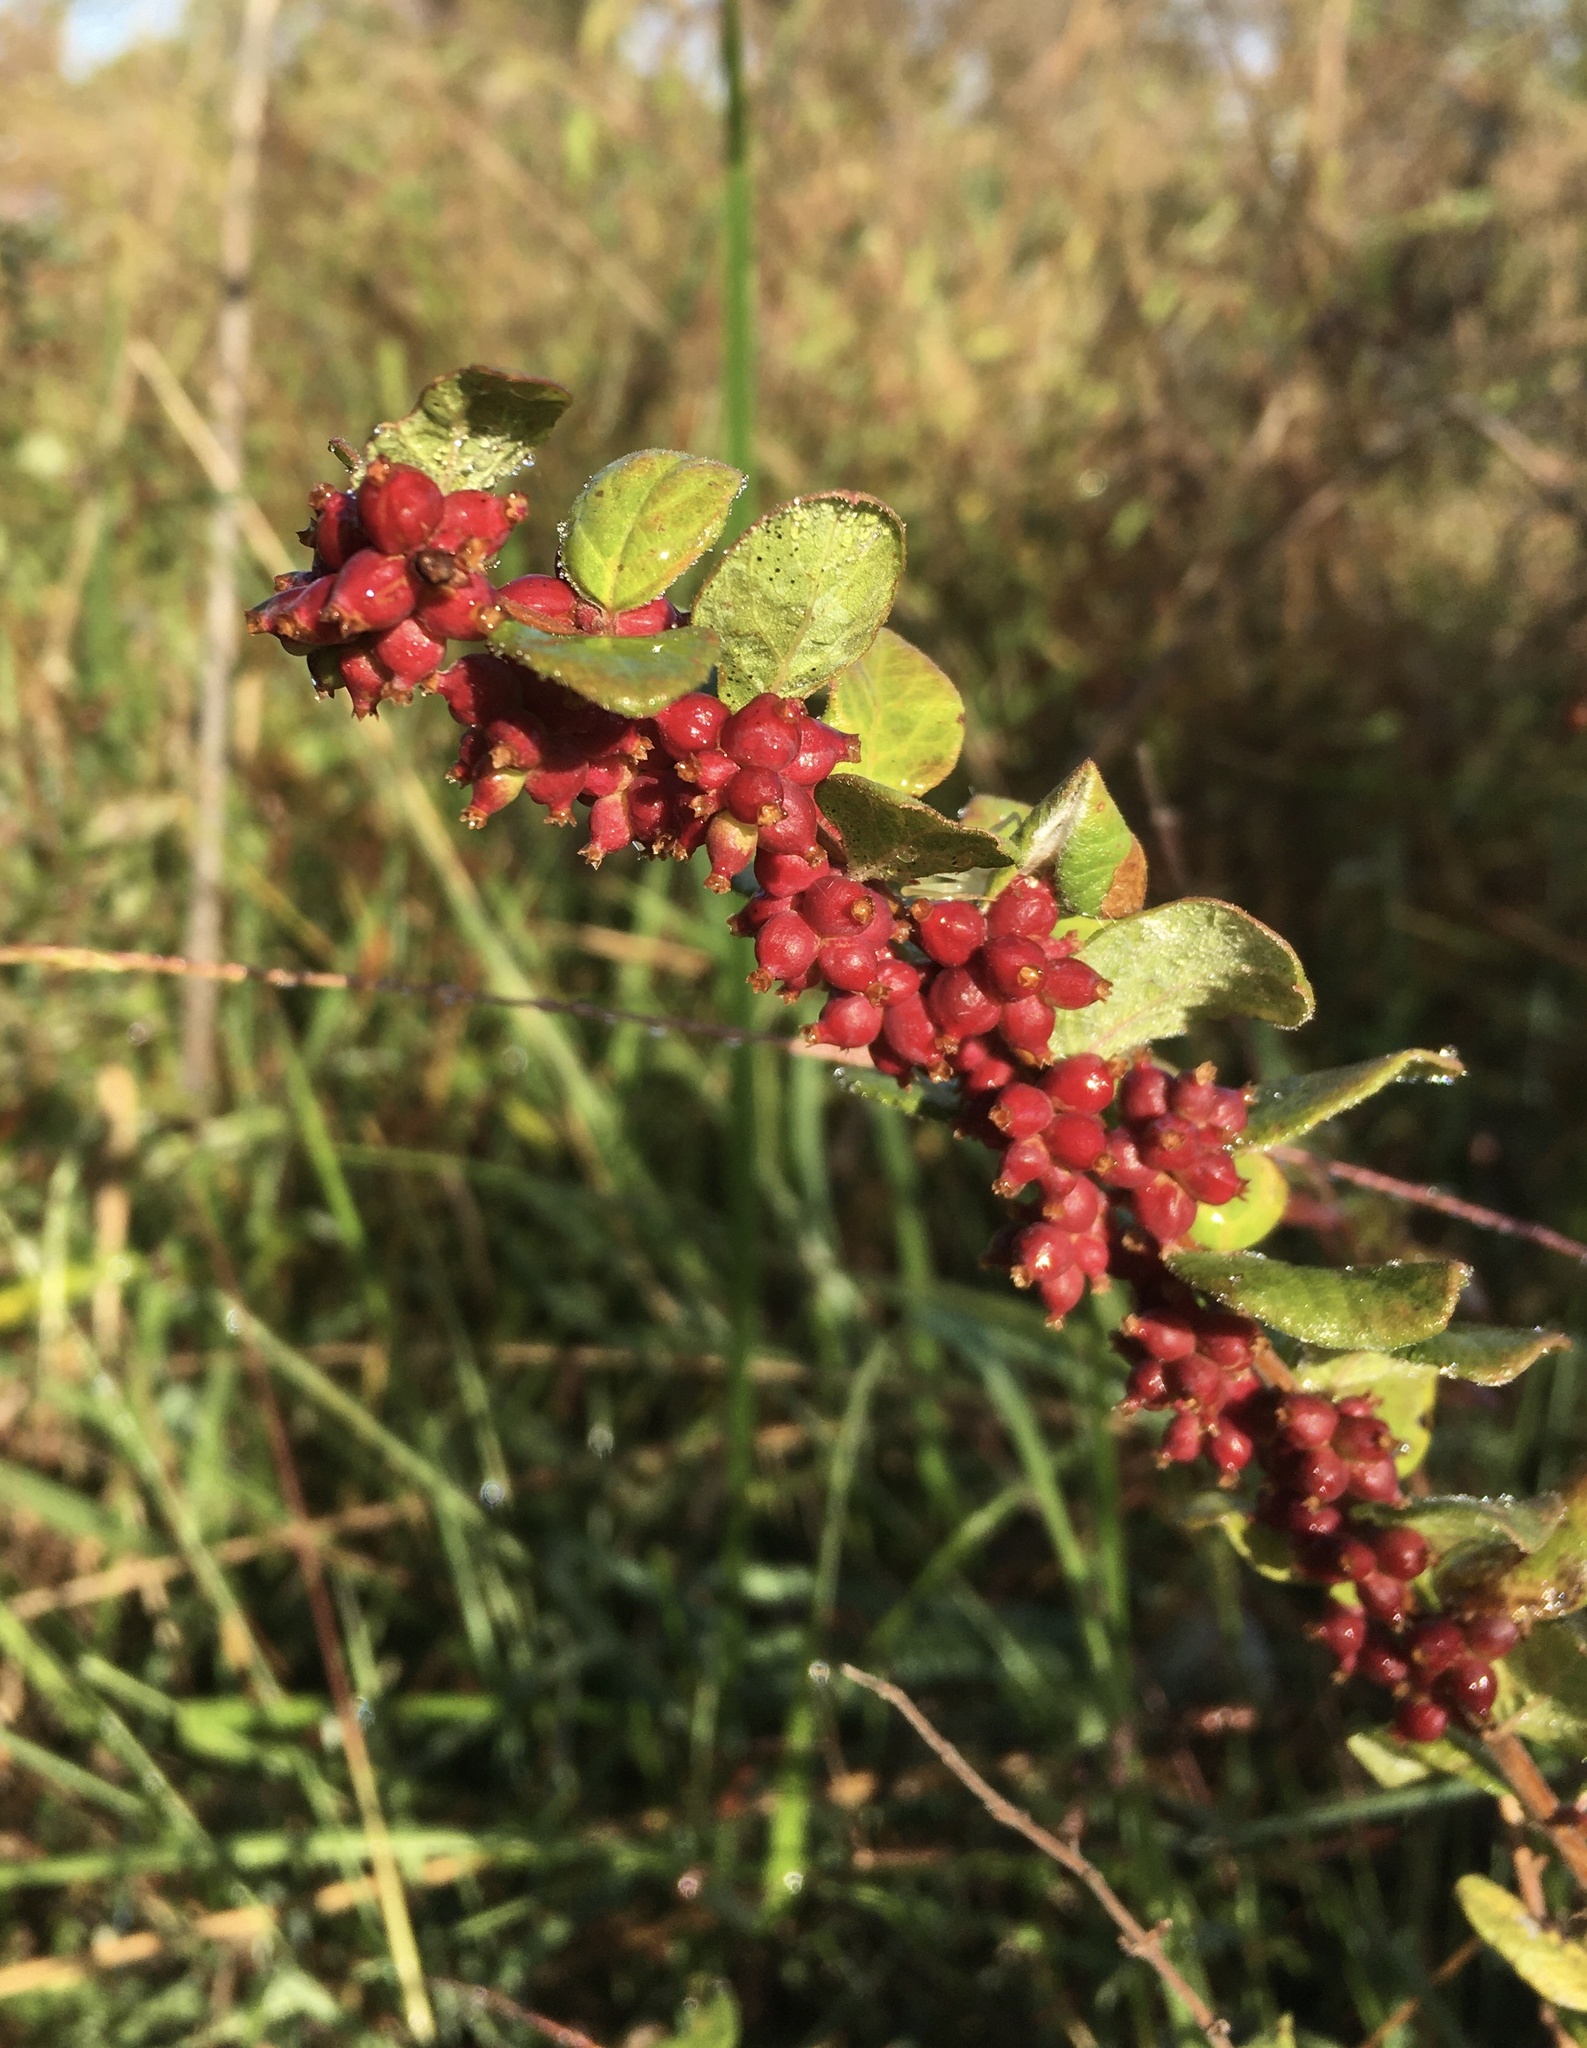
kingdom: Plantae
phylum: Tracheophyta
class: Magnoliopsida
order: Dipsacales
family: Caprifoliaceae
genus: Symphoricarpos
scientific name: Symphoricarpos orbiculatus
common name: Coralberry
